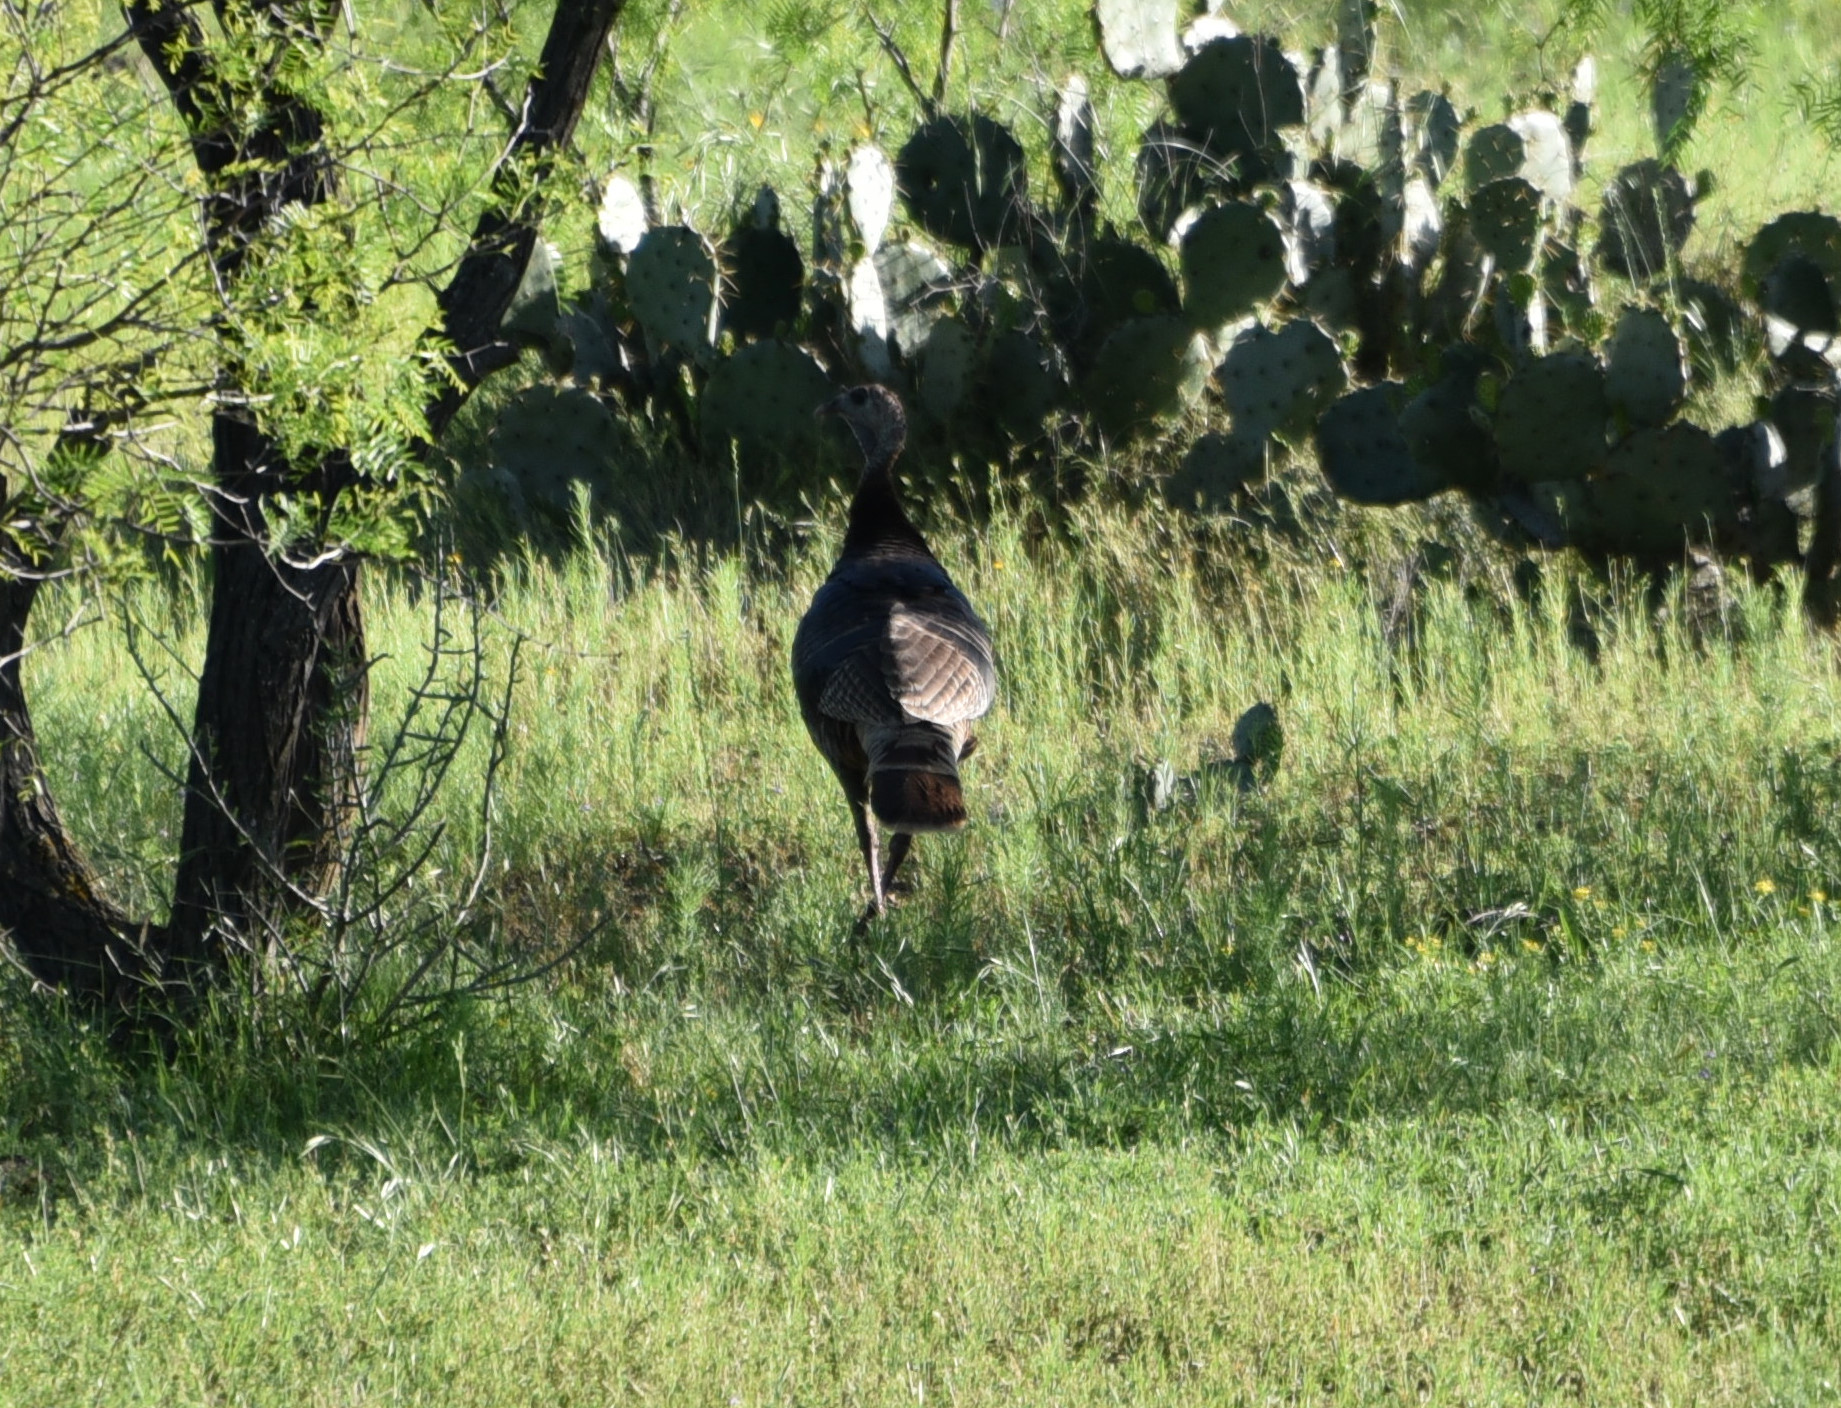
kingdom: Animalia
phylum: Chordata
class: Aves
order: Galliformes
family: Phasianidae
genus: Meleagris
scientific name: Meleagris gallopavo
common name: Wild turkey
